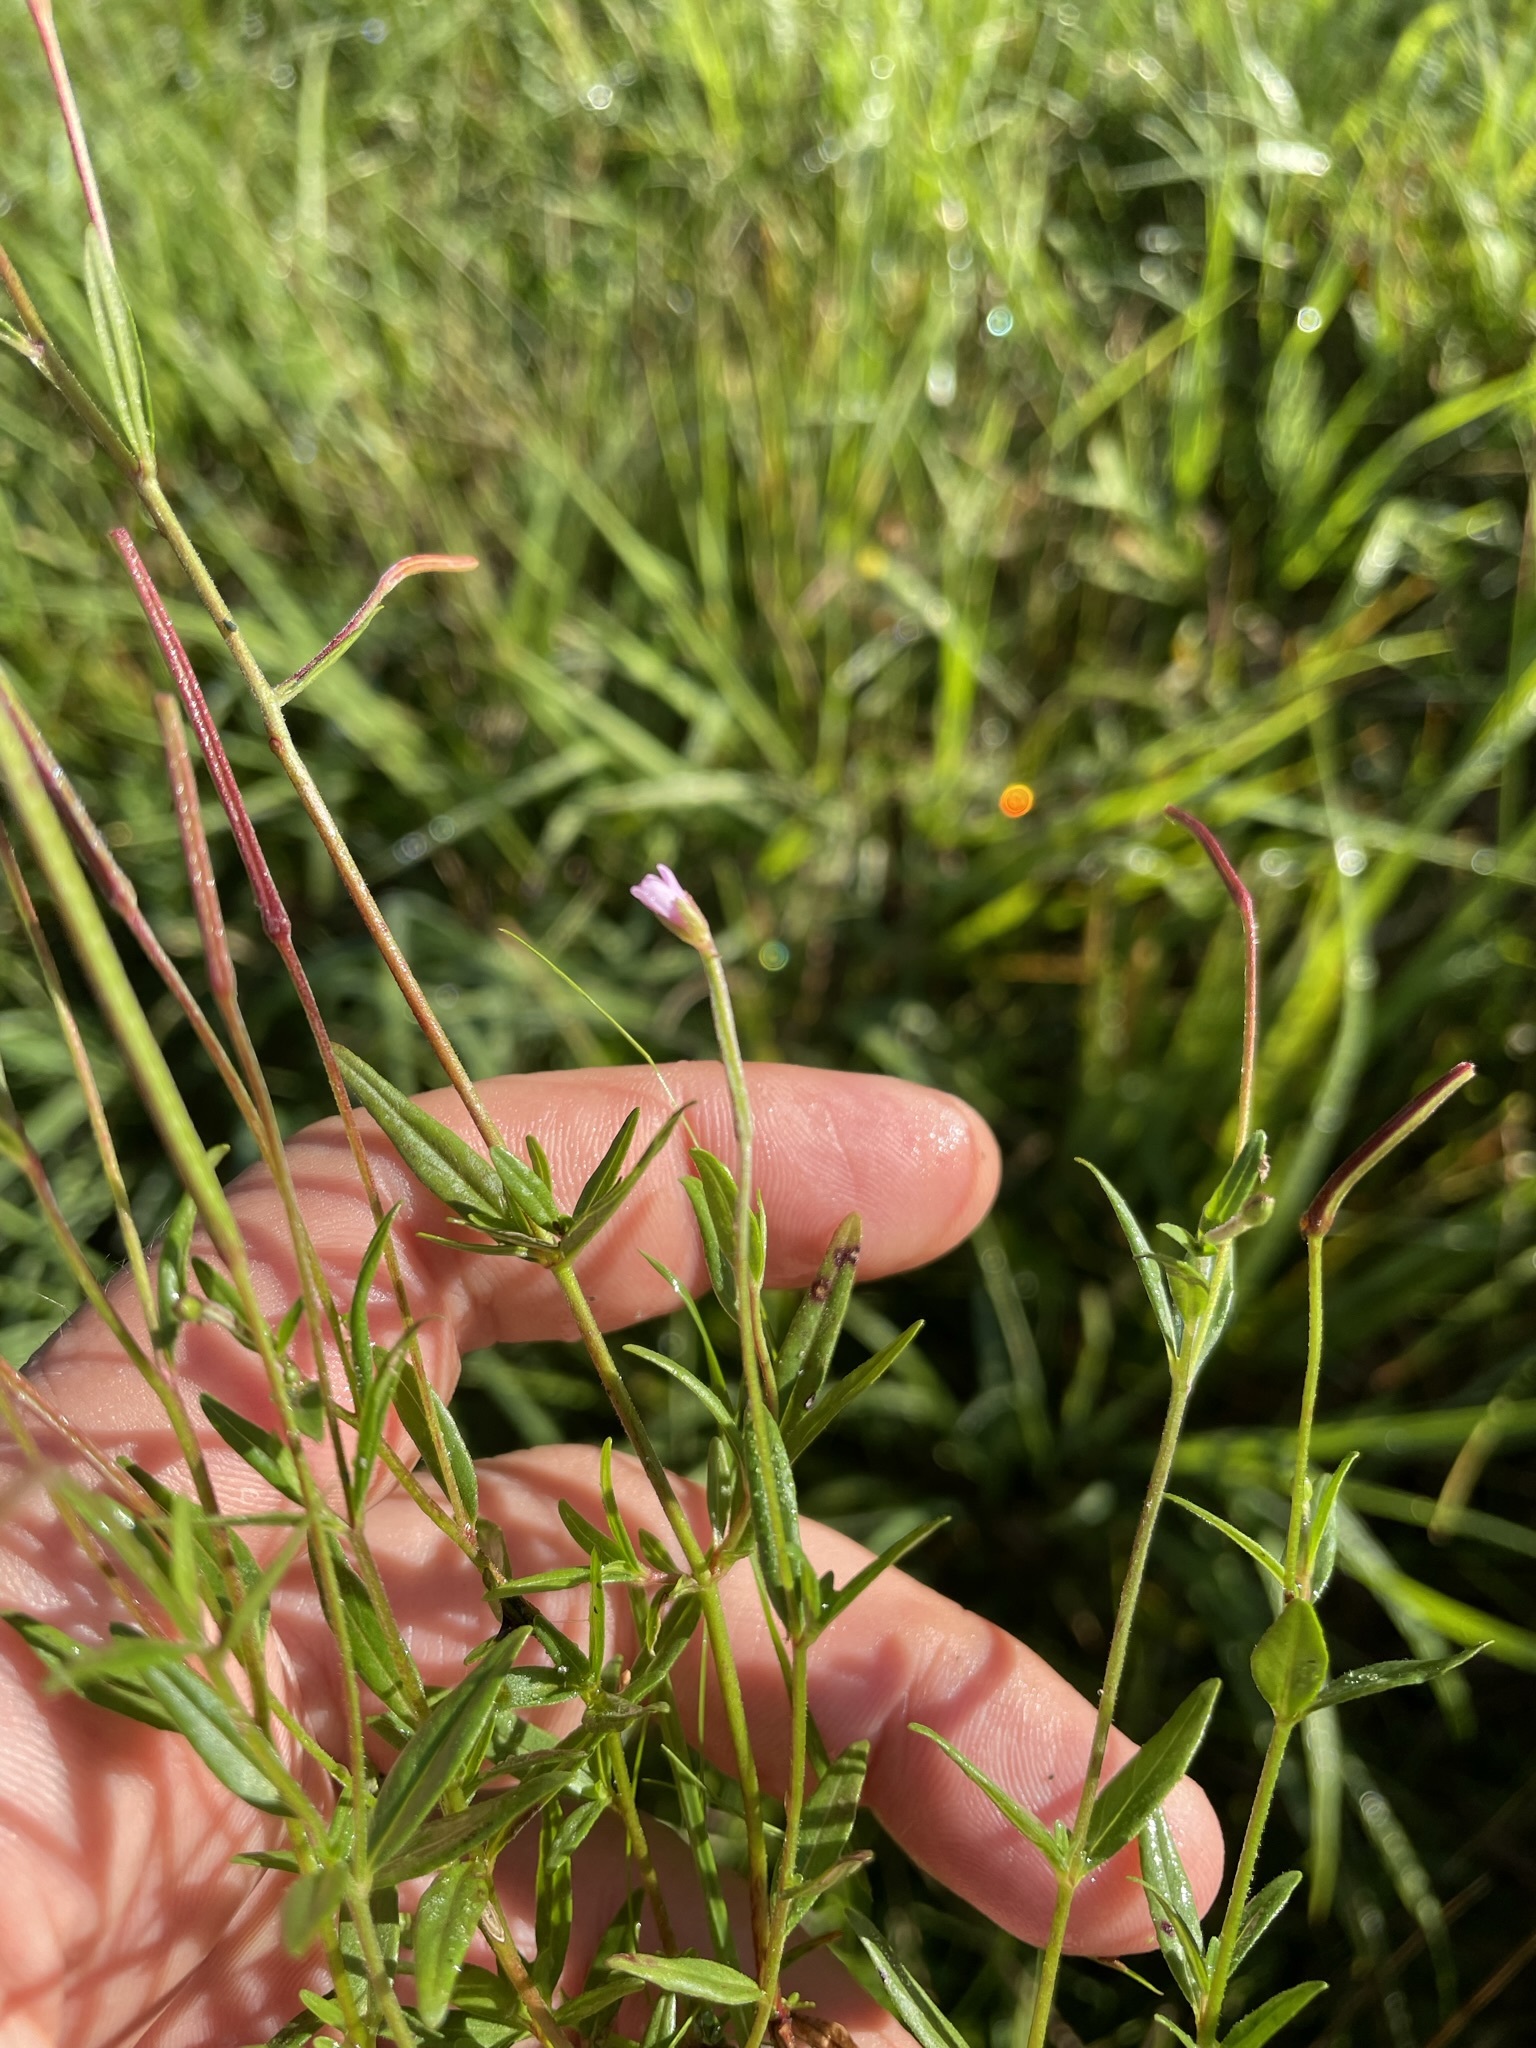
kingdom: Plantae
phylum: Tracheophyta
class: Magnoliopsida
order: Myrtales
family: Onagraceae
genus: Epilobium
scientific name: Epilobium palustre
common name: Marsh willowherb
